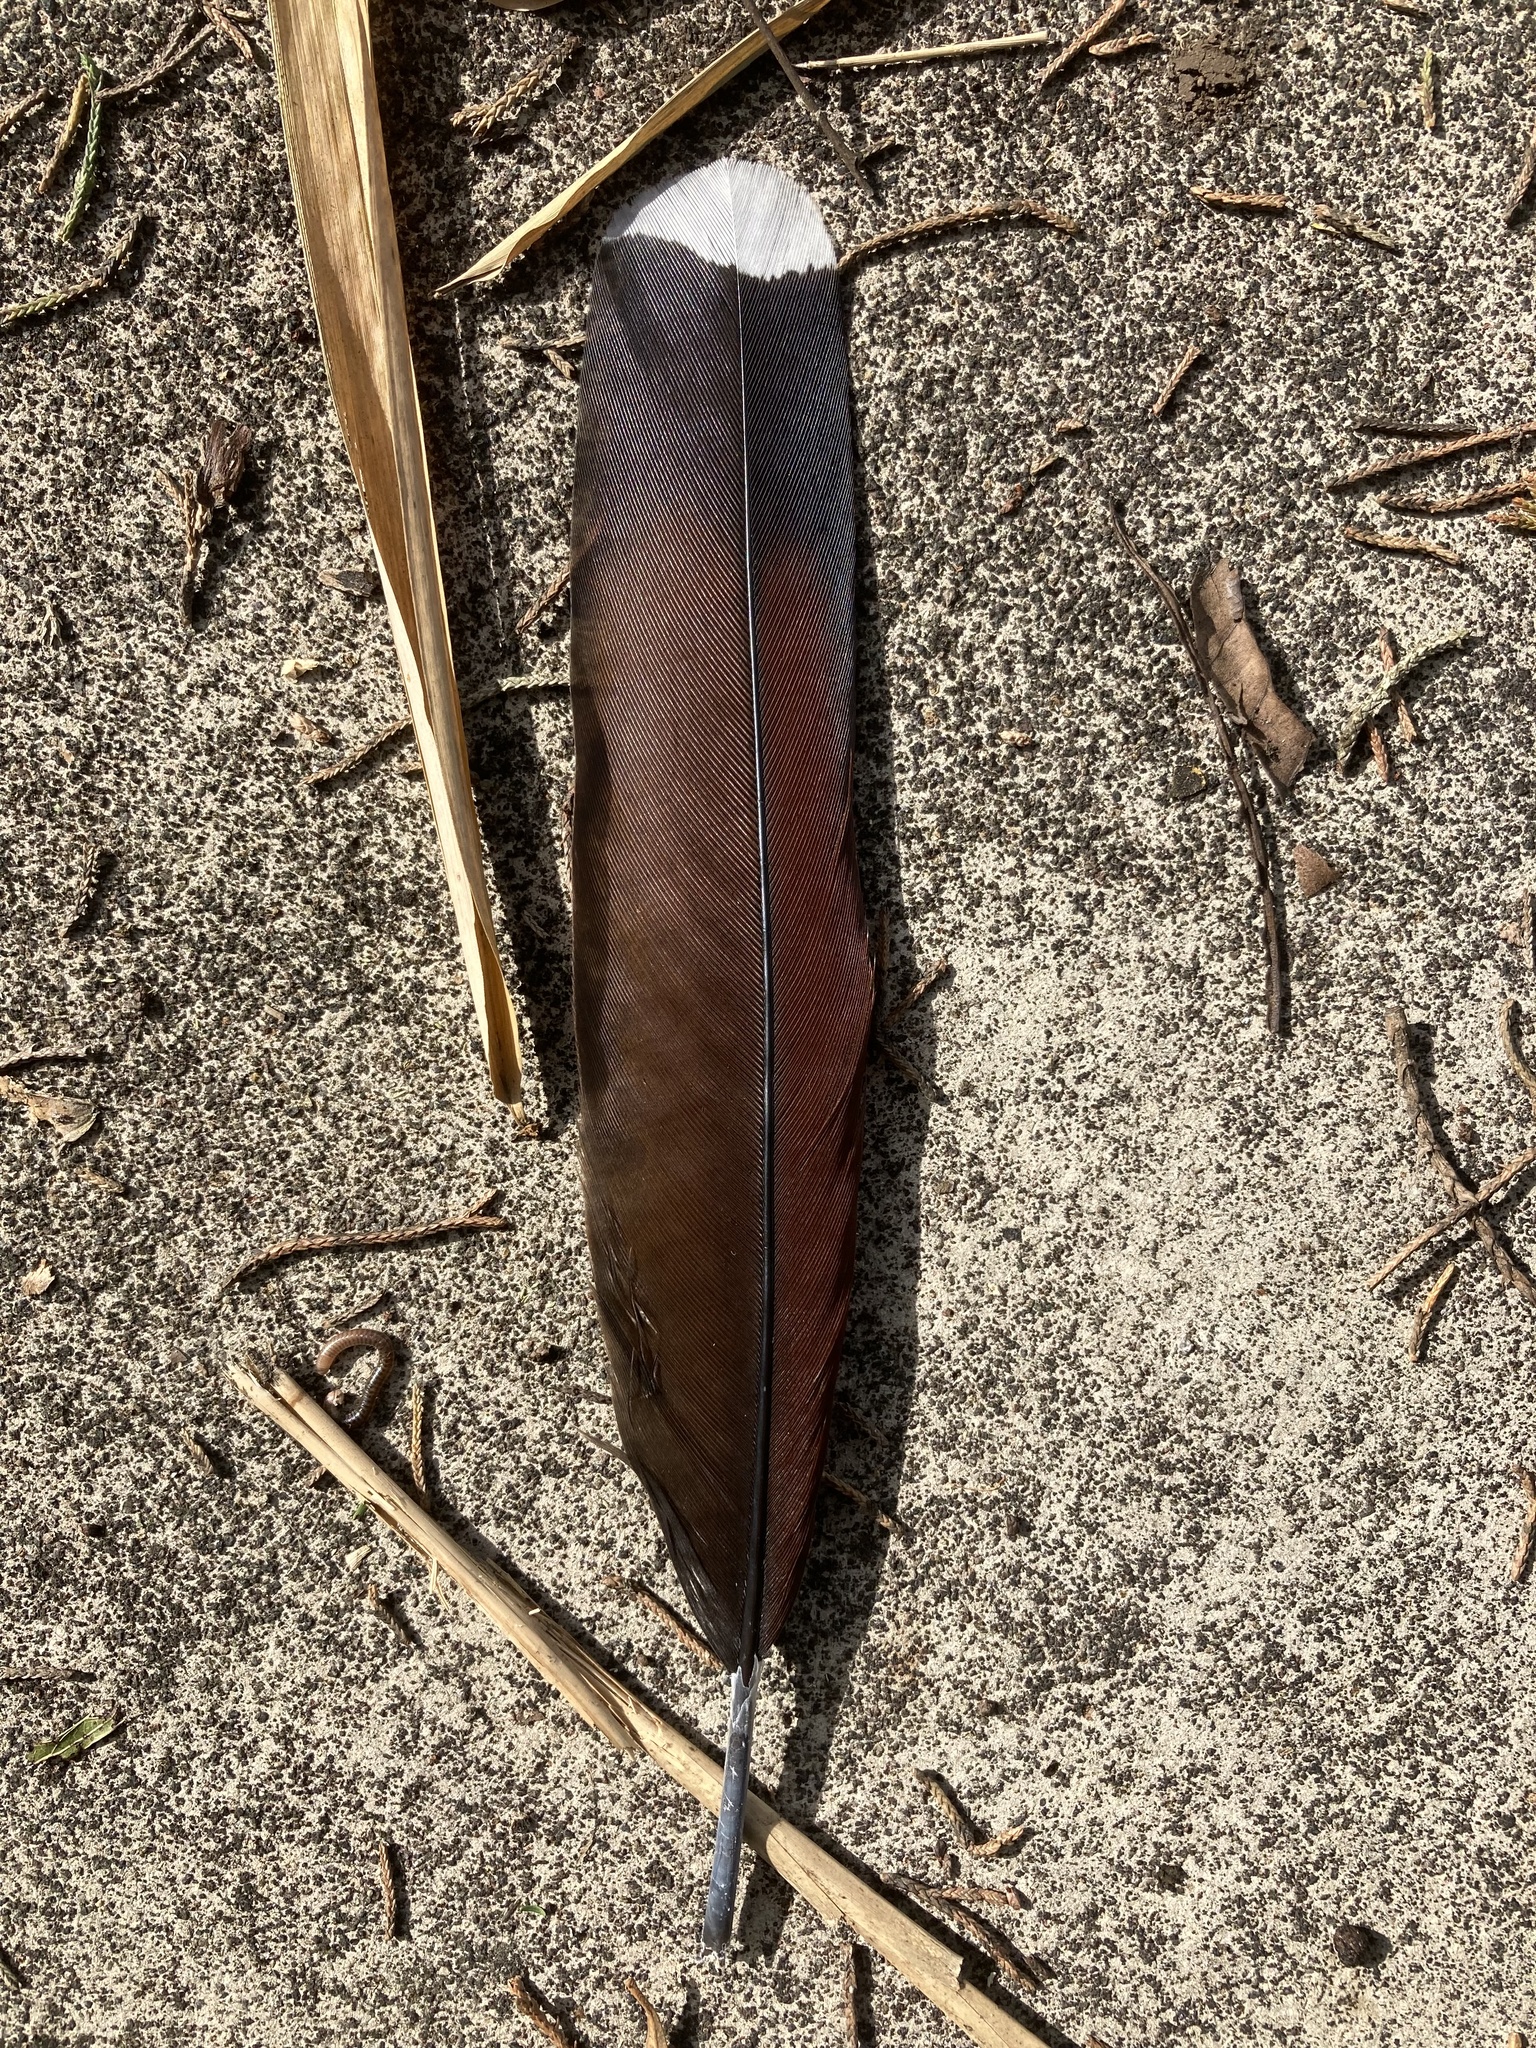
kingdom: Animalia
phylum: Chordata
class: Aves
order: Cuculiformes
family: Cuculidae
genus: Piaya
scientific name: Piaya cayana
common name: Squirrel cuckoo
